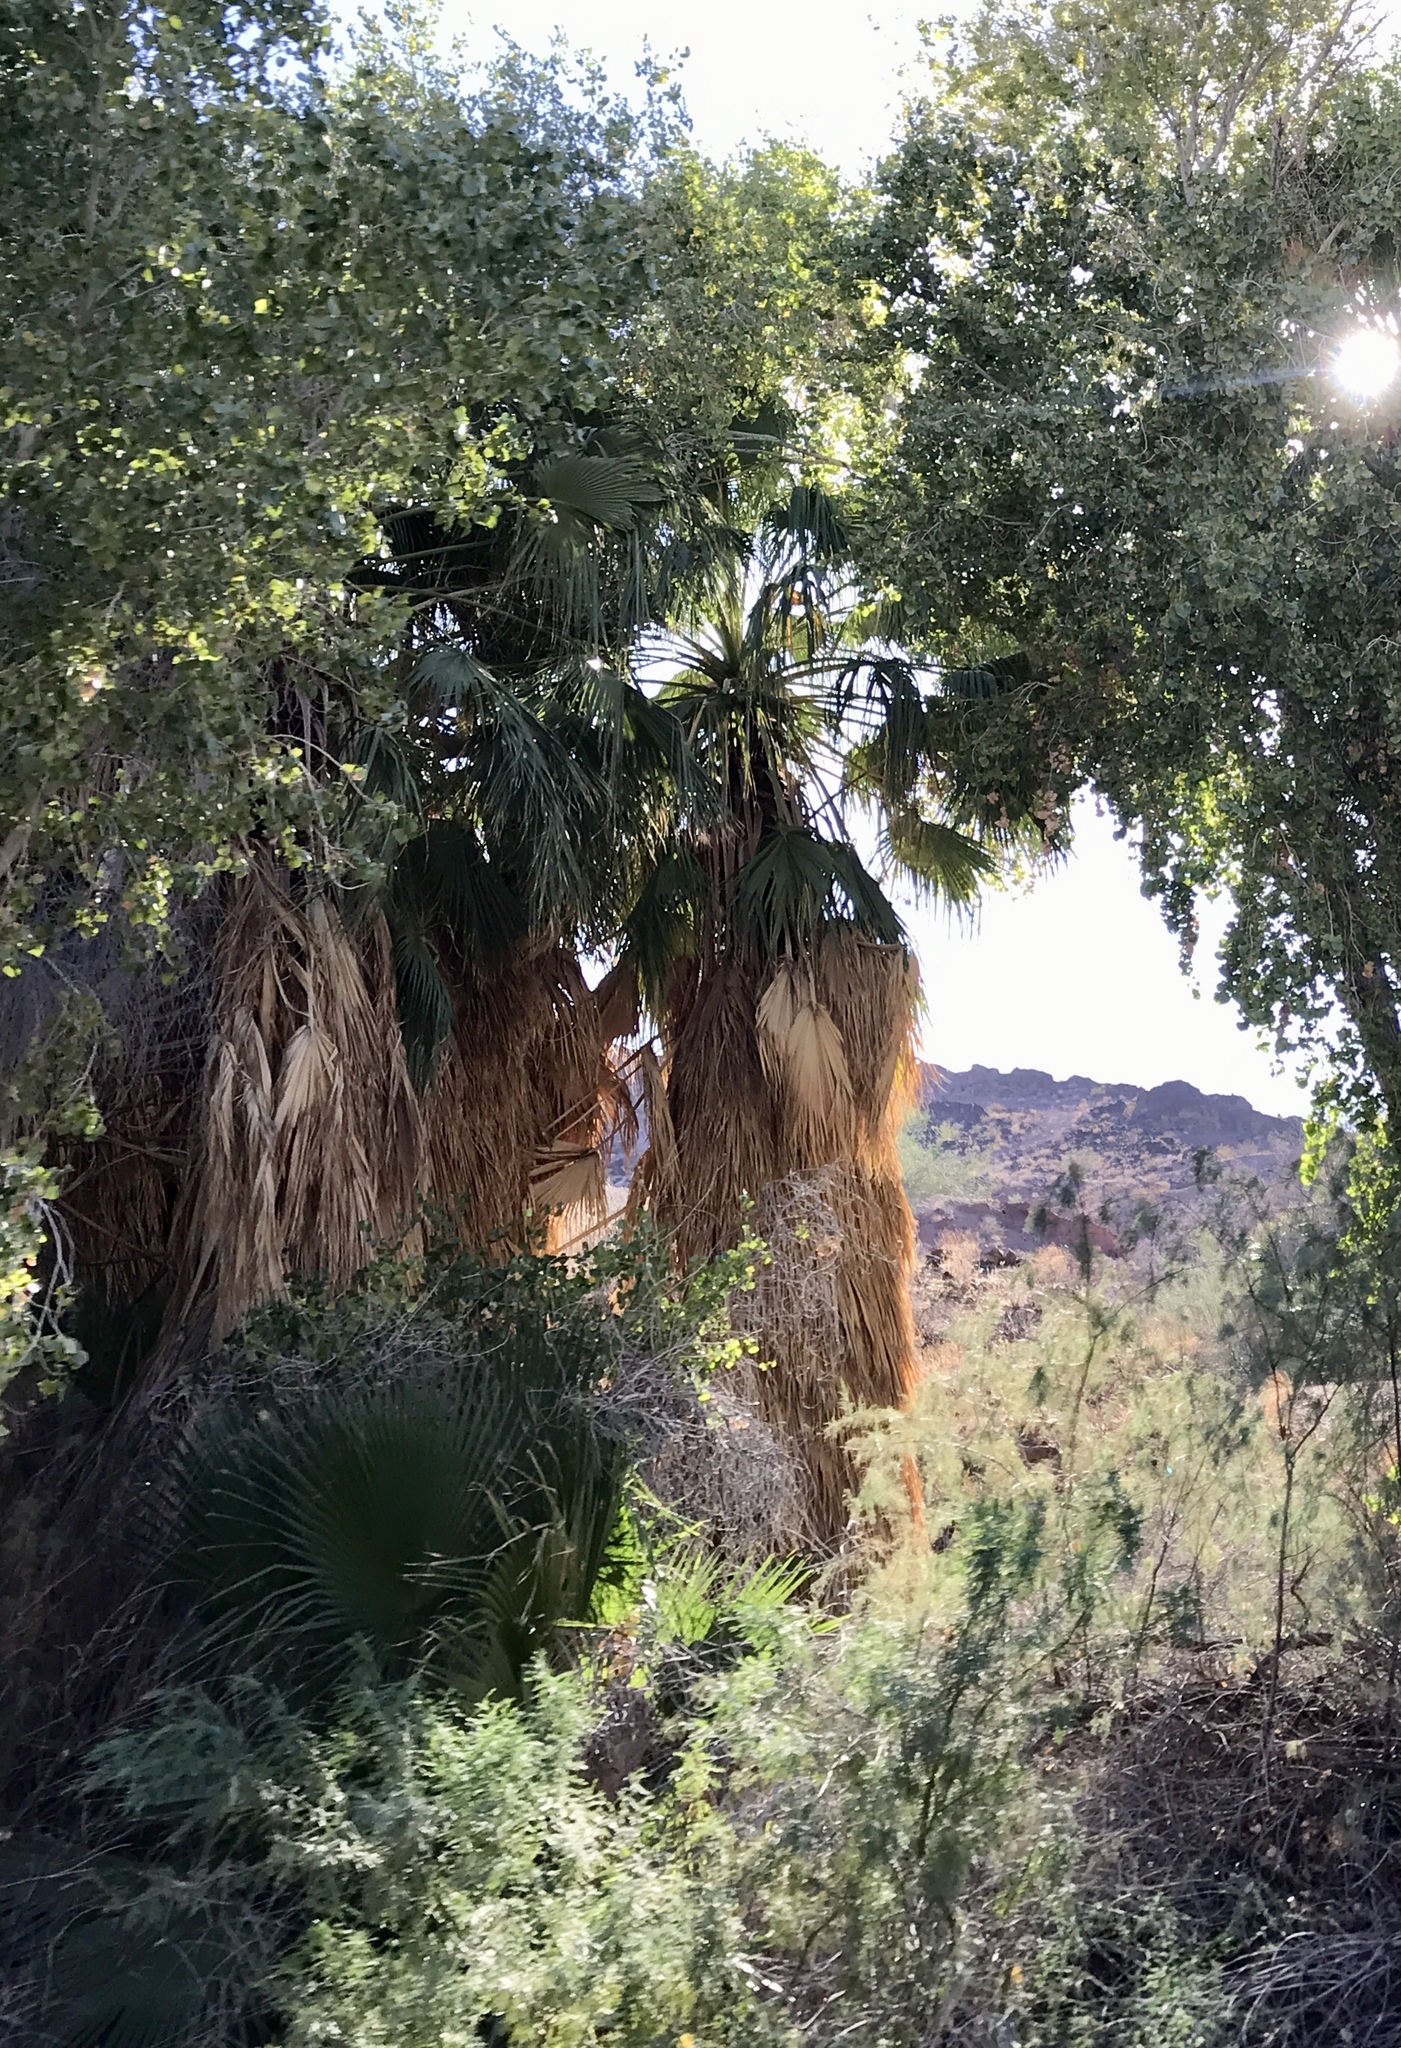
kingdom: Plantae
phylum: Tracheophyta
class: Liliopsida
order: Arecales
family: Arecaceae
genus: Washingtonia
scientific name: Washingtonia filifera
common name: California fan palm
